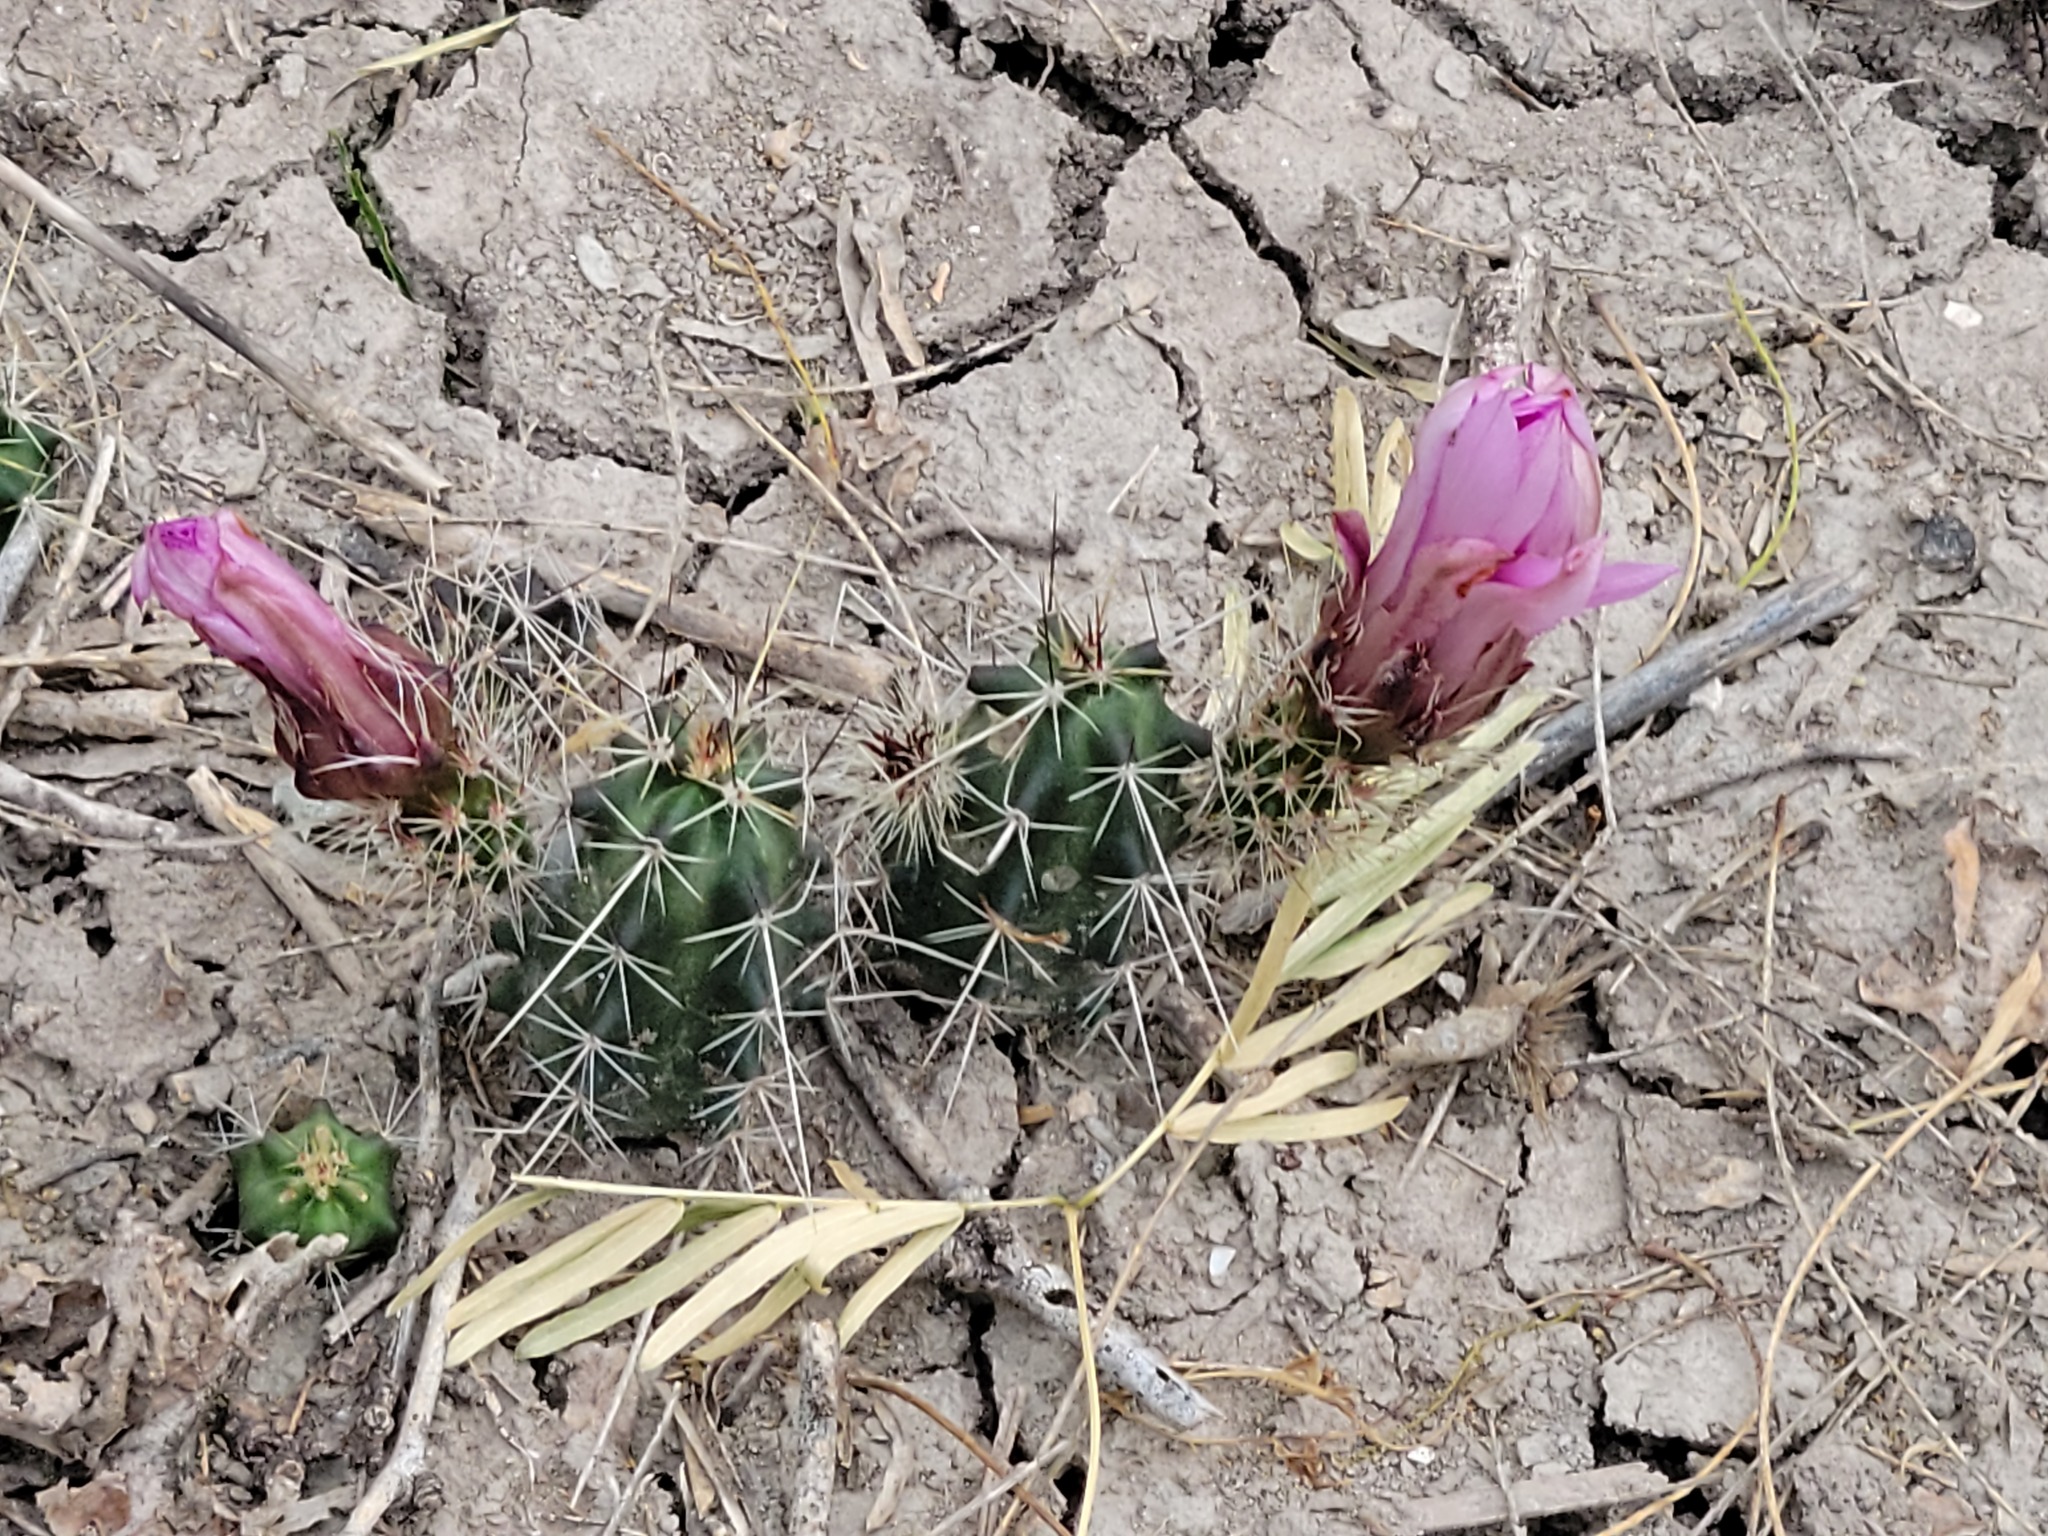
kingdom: Plantae
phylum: Tracheophyta
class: Magnoliopsida
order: Caryophyllales
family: Cactaceae
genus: Echinocereus
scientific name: Echinocereus berlandieri
